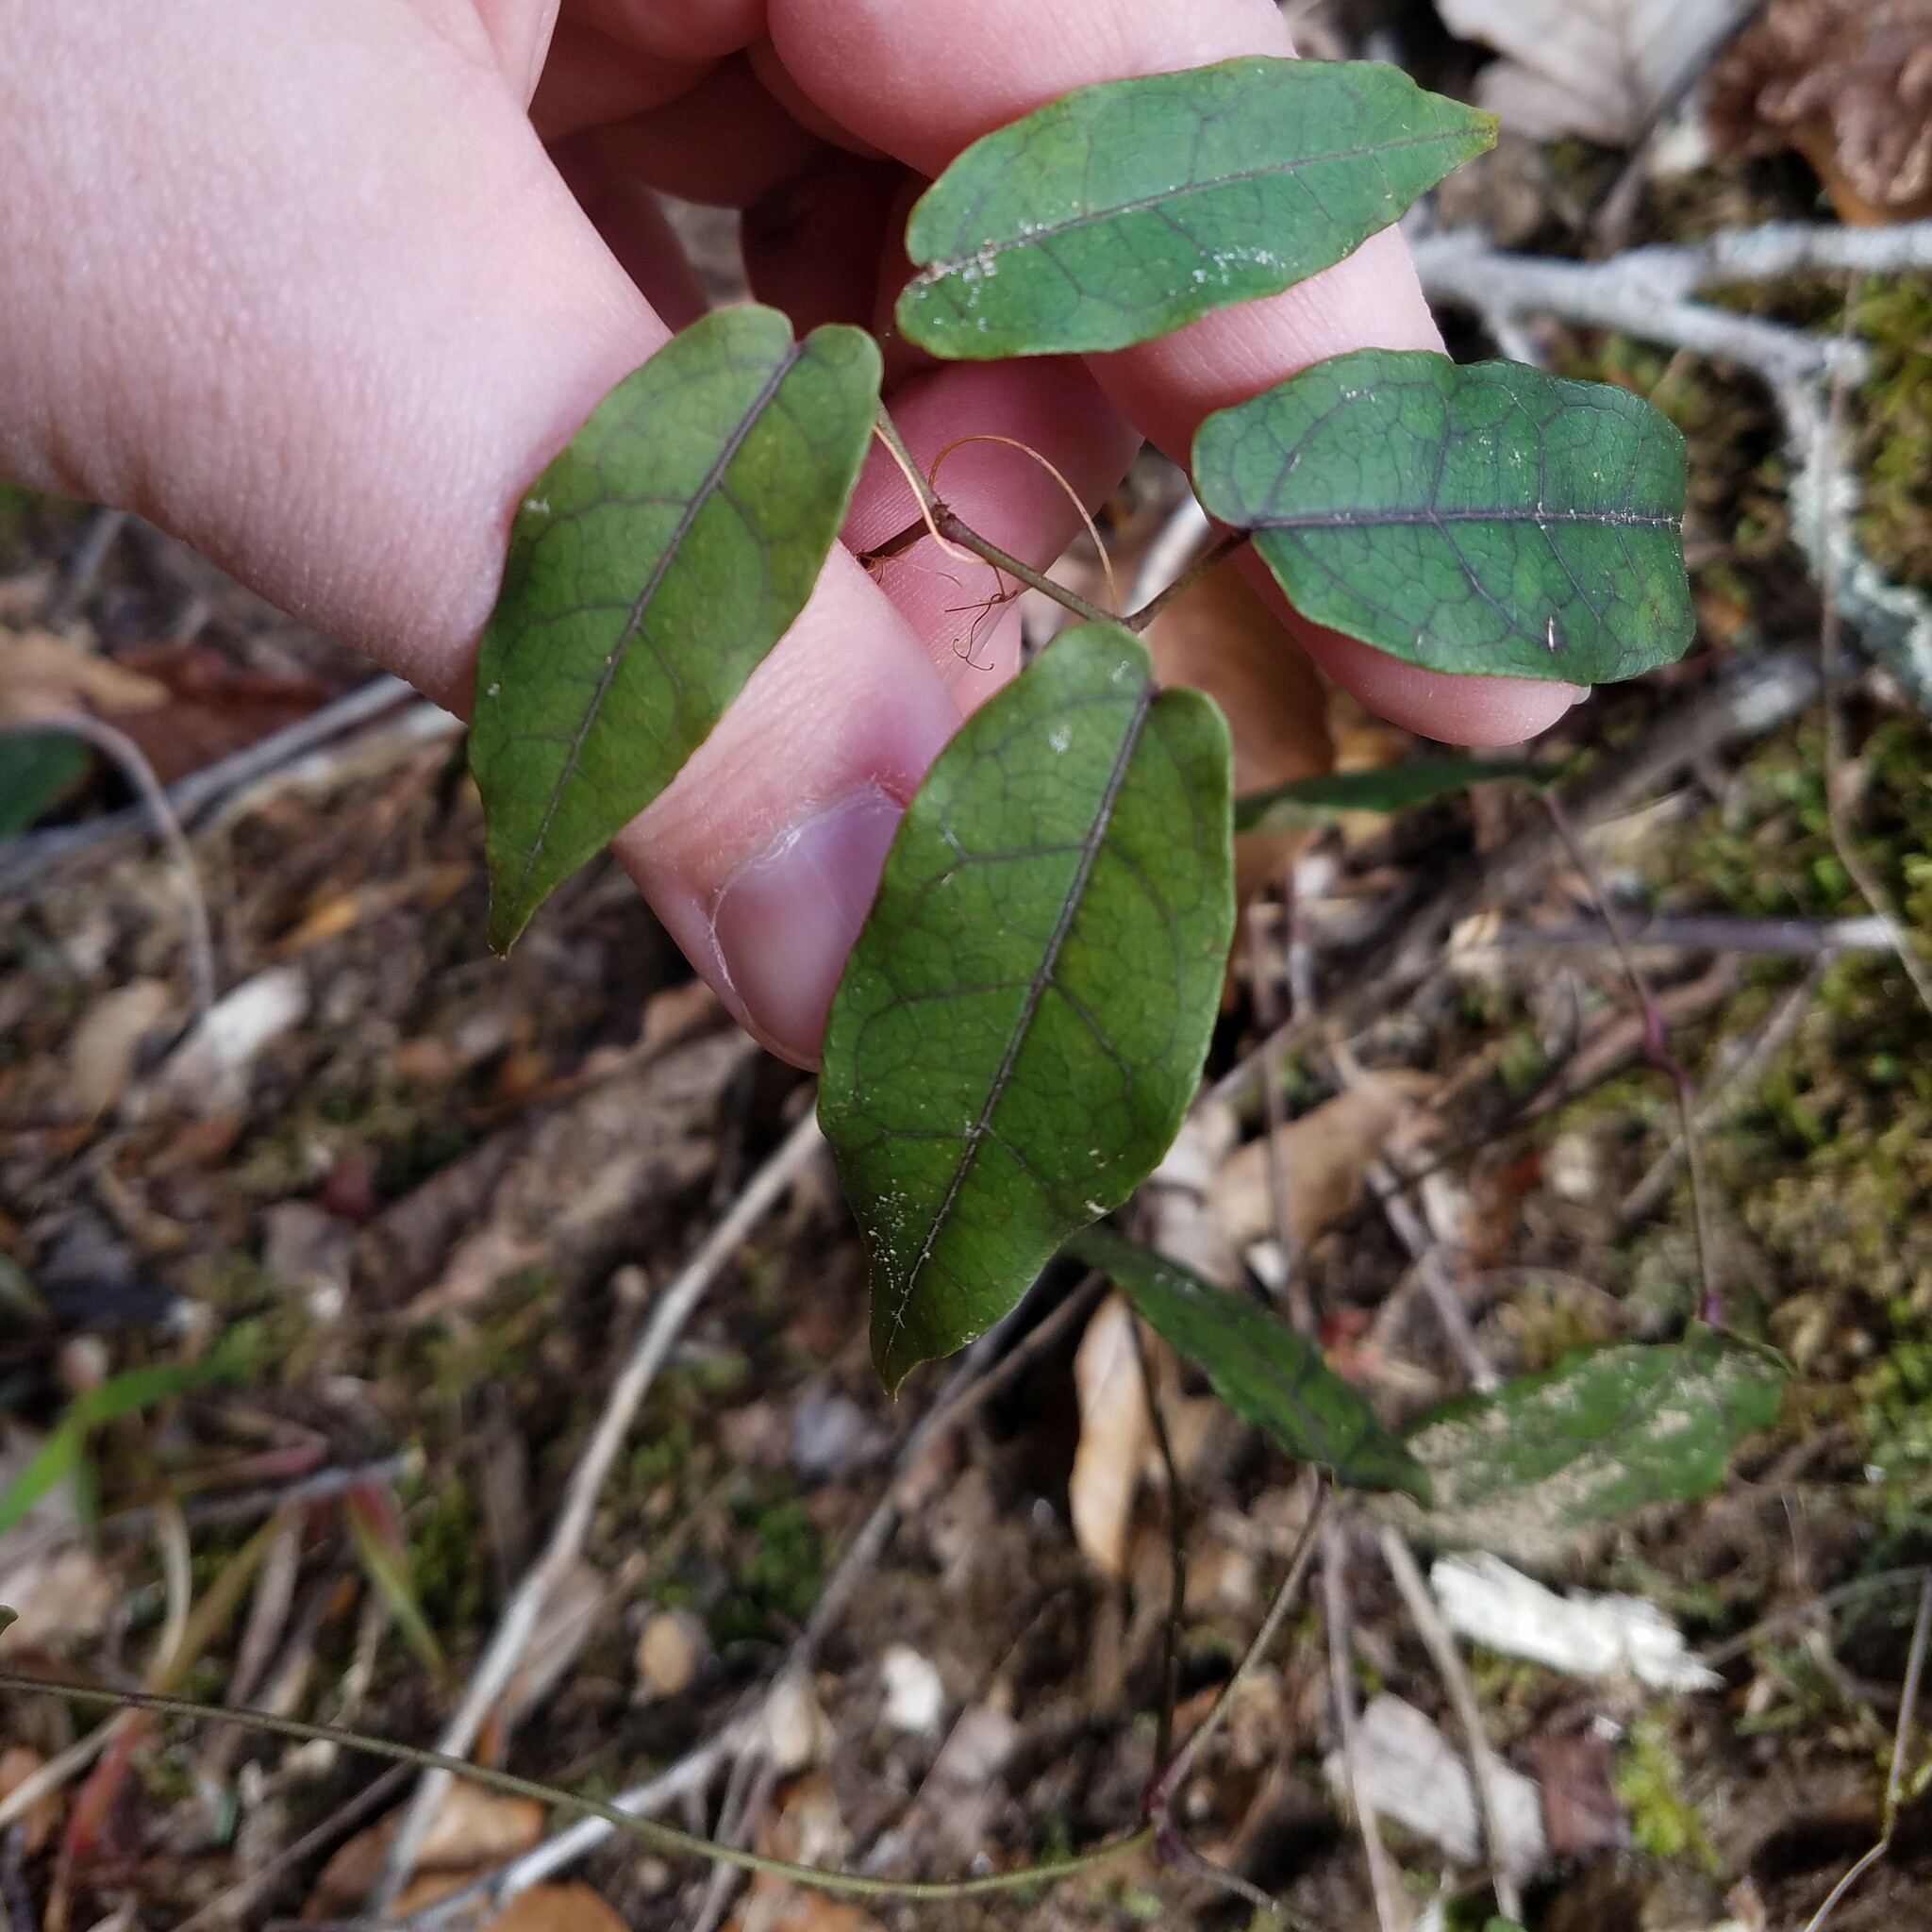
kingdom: Plantae
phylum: Tracheophyta
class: Magnoliopsida
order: Lamiales
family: Bignoniaceae
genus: Bignonia
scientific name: Bignonia capreolata
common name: Crossvine
